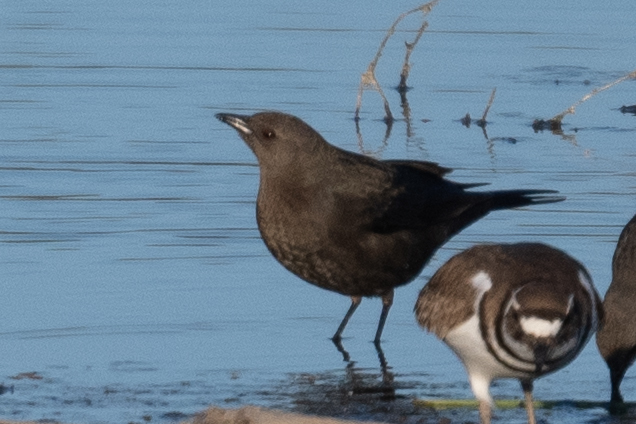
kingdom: Animalia
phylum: Chordata
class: Aves
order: Passeriformes
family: Icteridae
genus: Euphagus
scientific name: Euphagus cyanocephalus
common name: Brewer's blackbird
